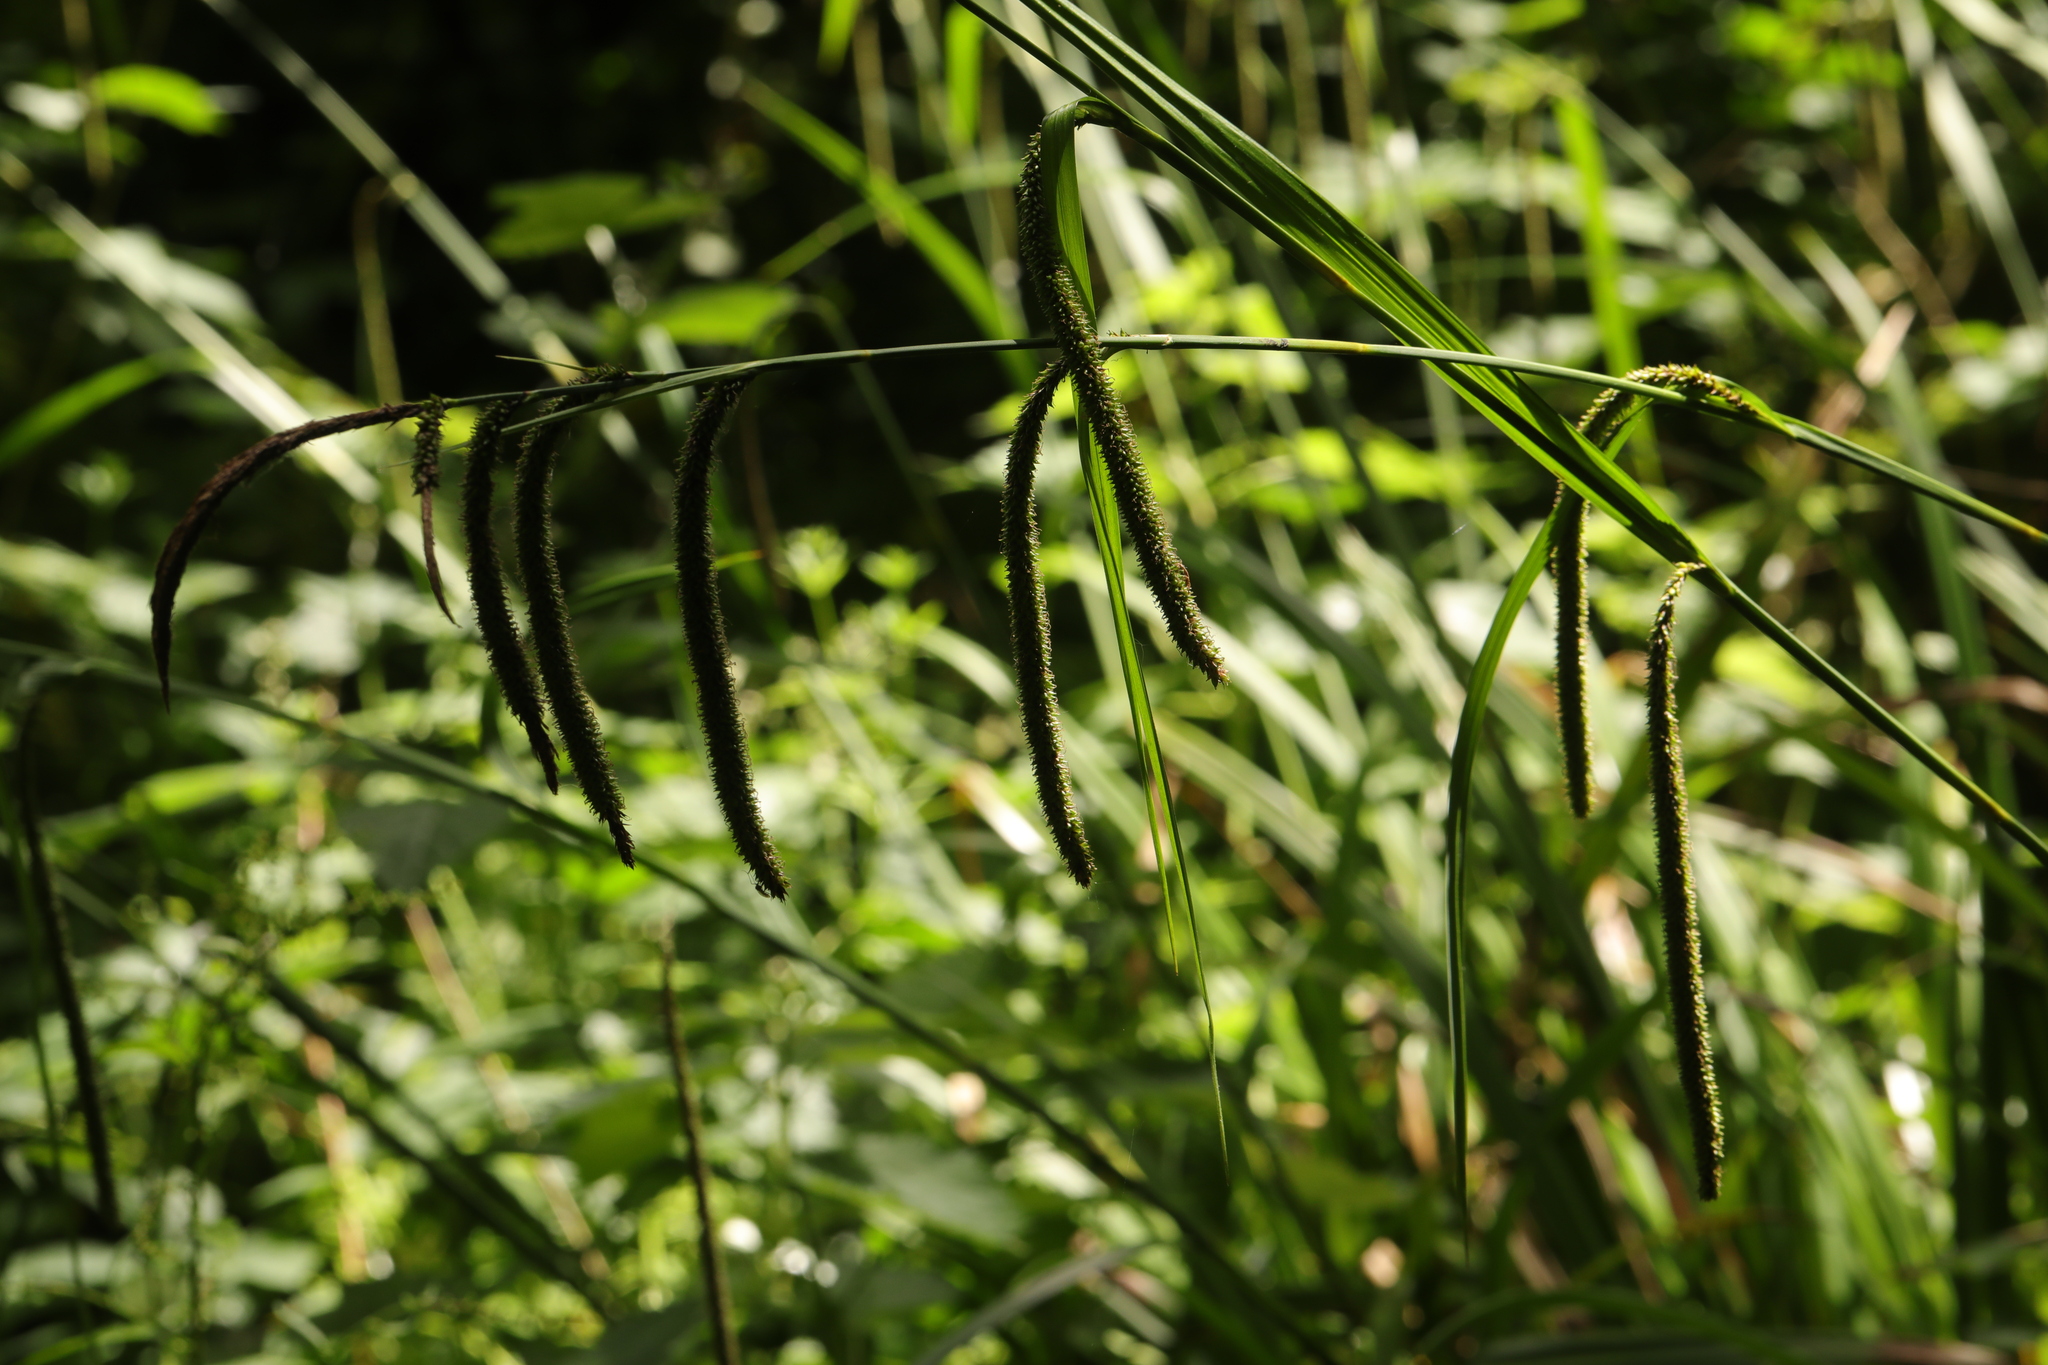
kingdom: Plantae
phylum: Tracheophyta
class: Liliopsida
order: Poales
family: Cyperaceae
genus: Carex
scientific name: Carex pendula
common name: Pendulous sedge
